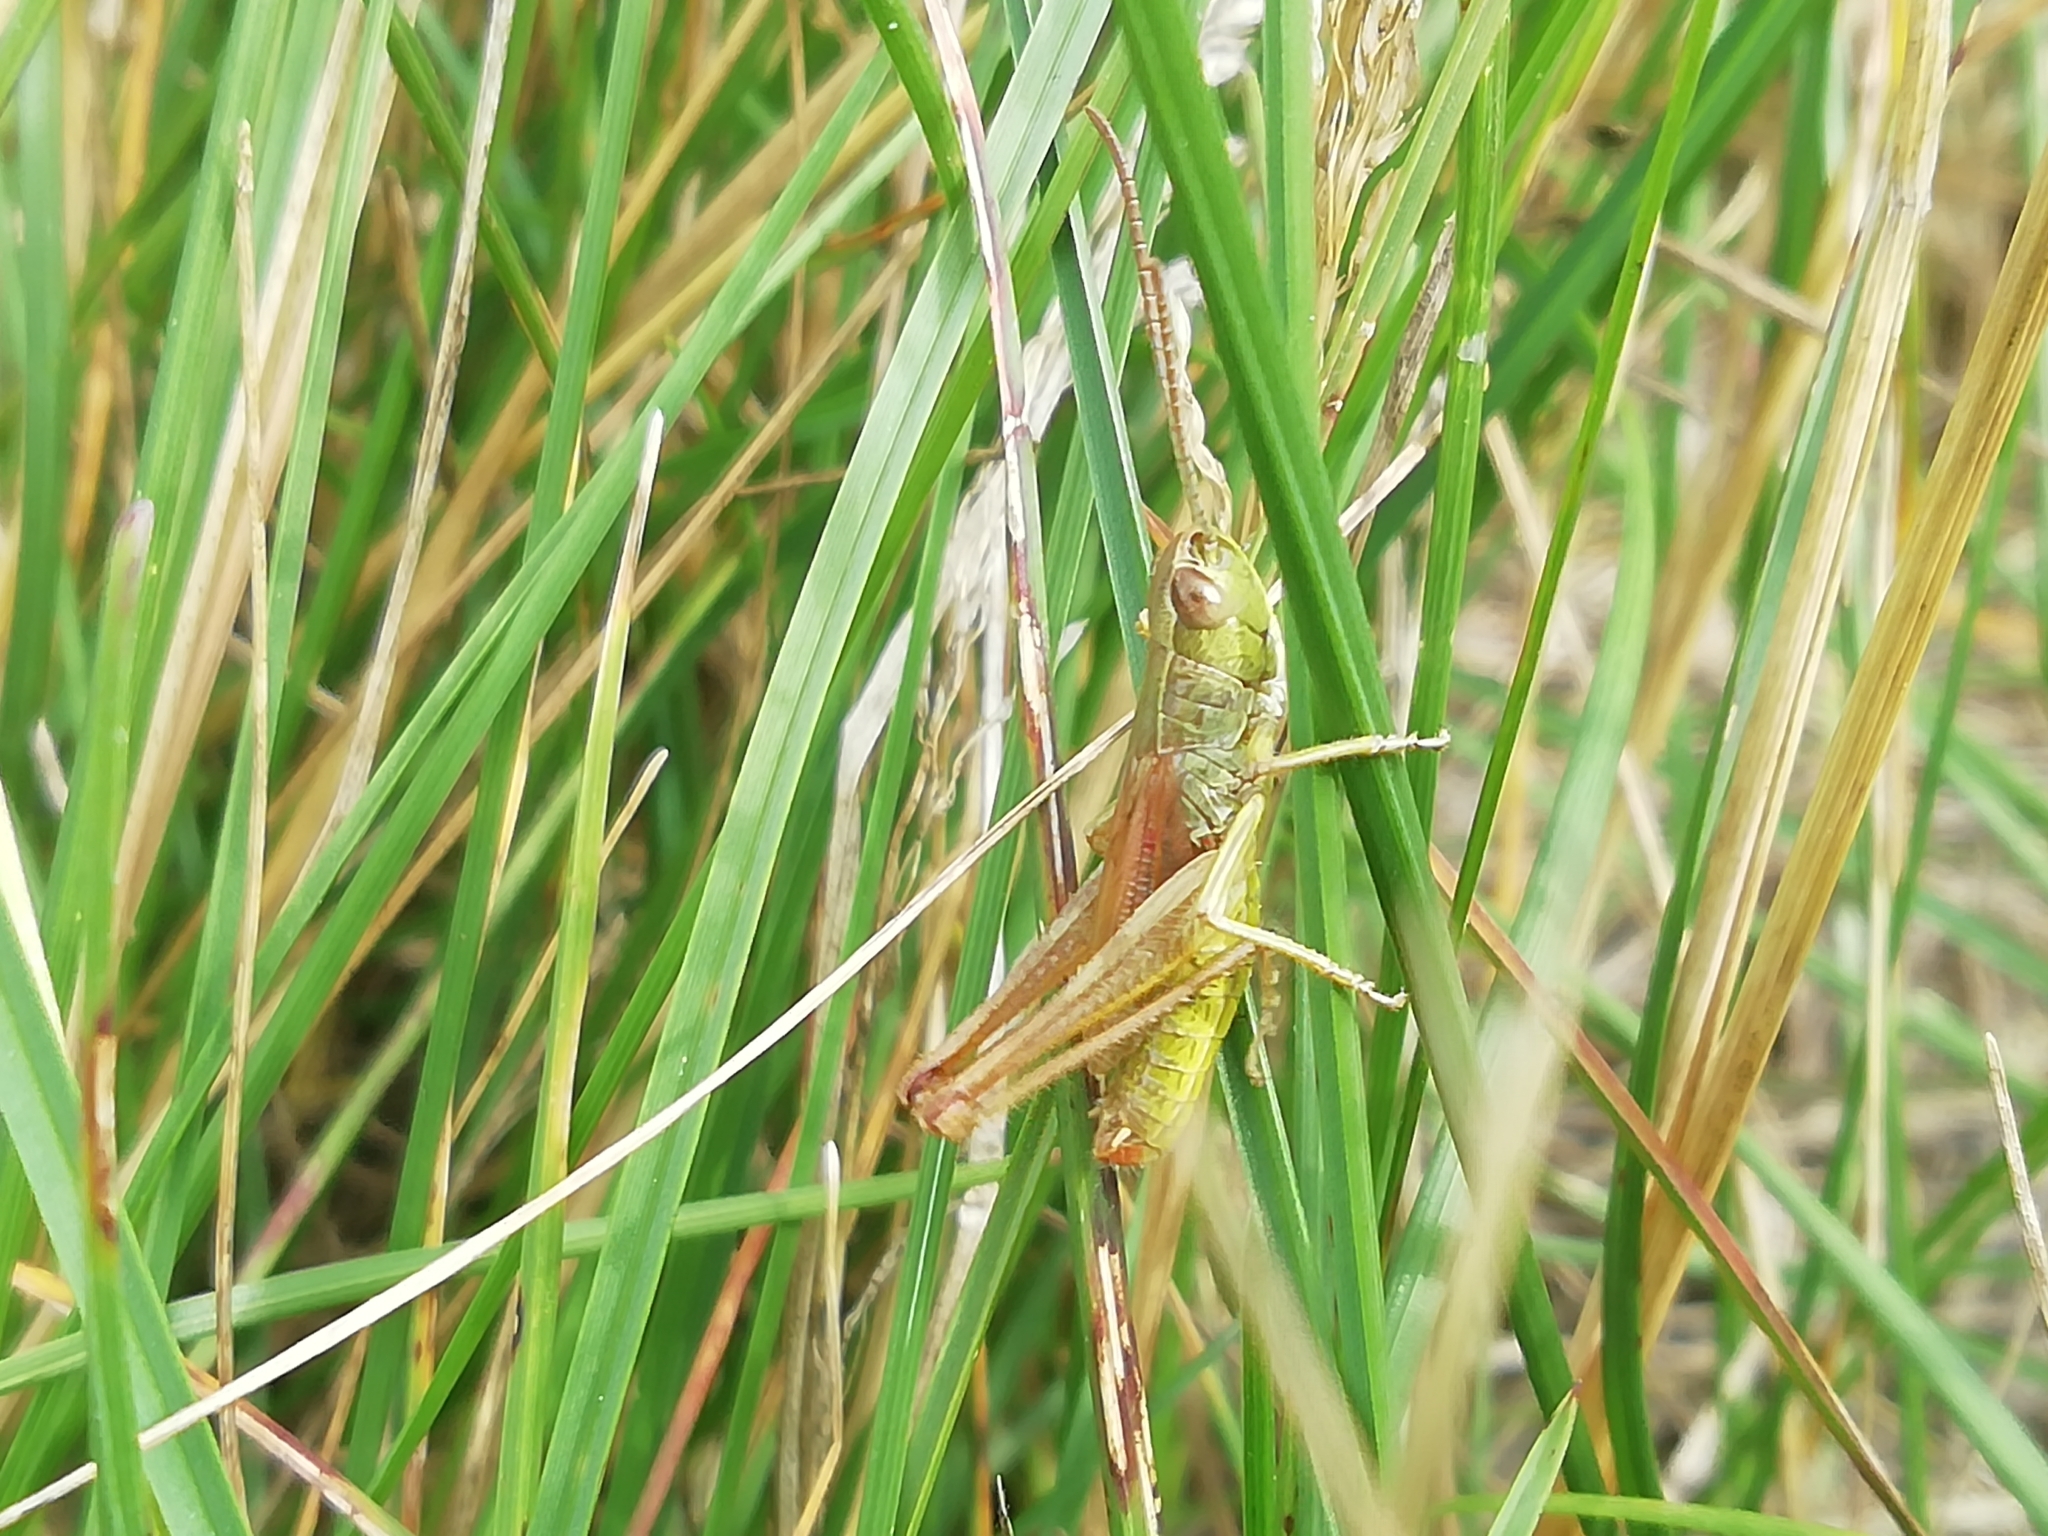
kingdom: Animalia
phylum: Arthropoda
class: Insecta
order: Orthoptera
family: Acrididae
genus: Pseudochorthippus
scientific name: Pseudochorthippus parallelus
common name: Meadow grasshopper
